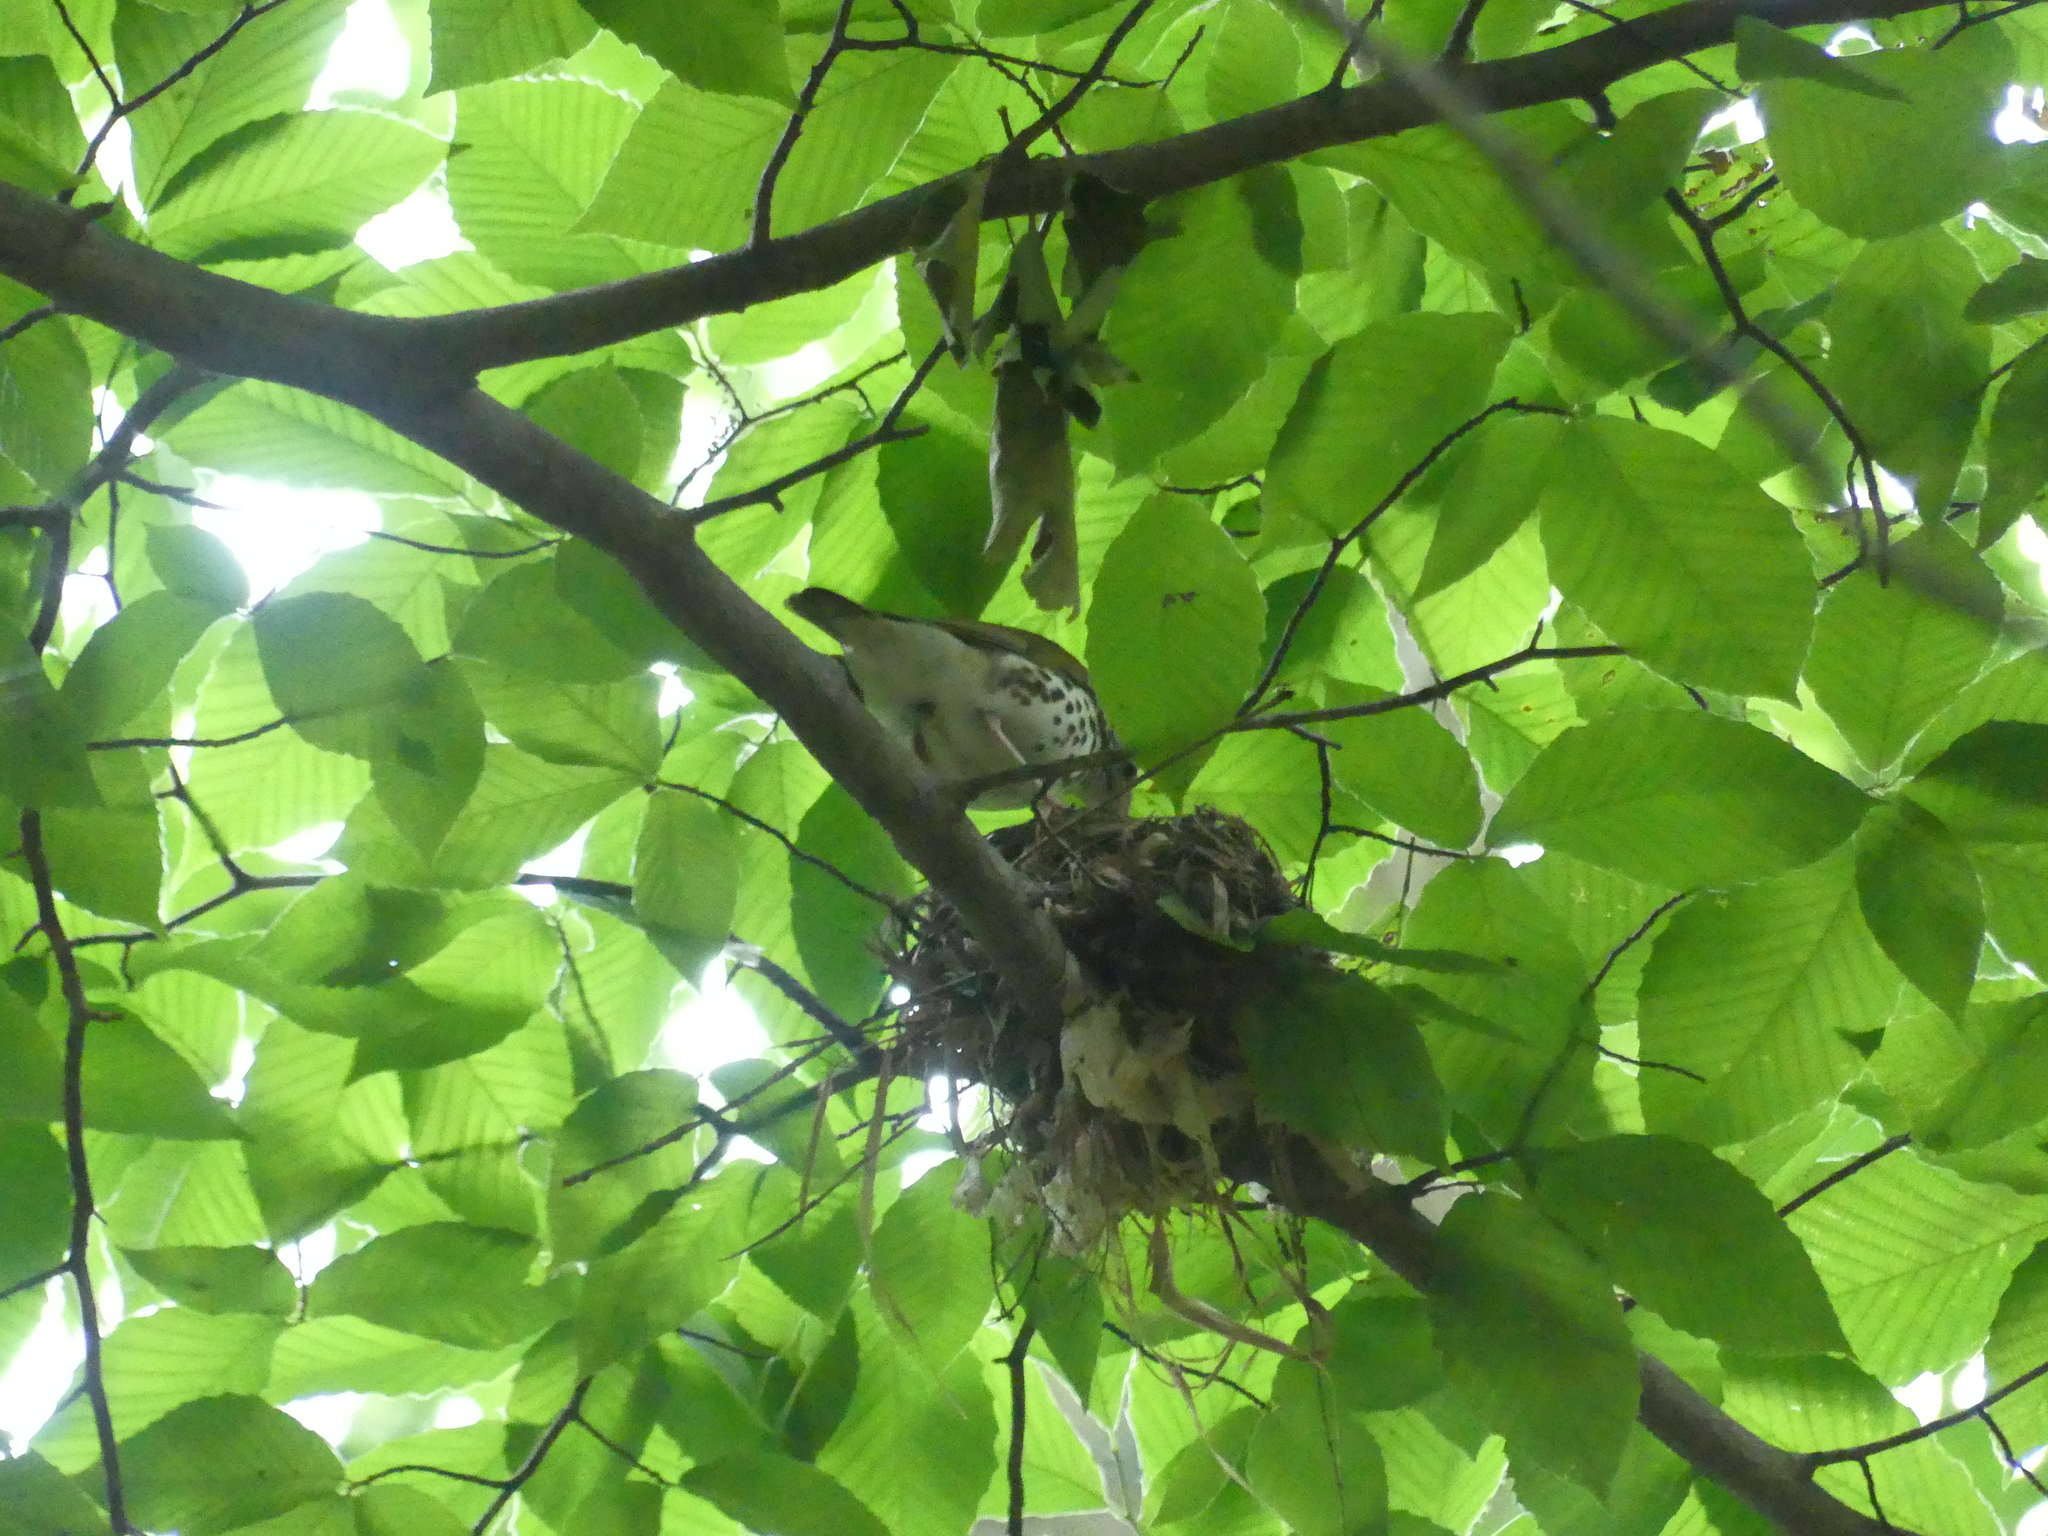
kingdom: Animalia
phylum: Chordata
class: Aves
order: Passeriformes
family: Turdidae
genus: Hylocichla
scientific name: Hylocichla mustelina
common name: Wood thrush
